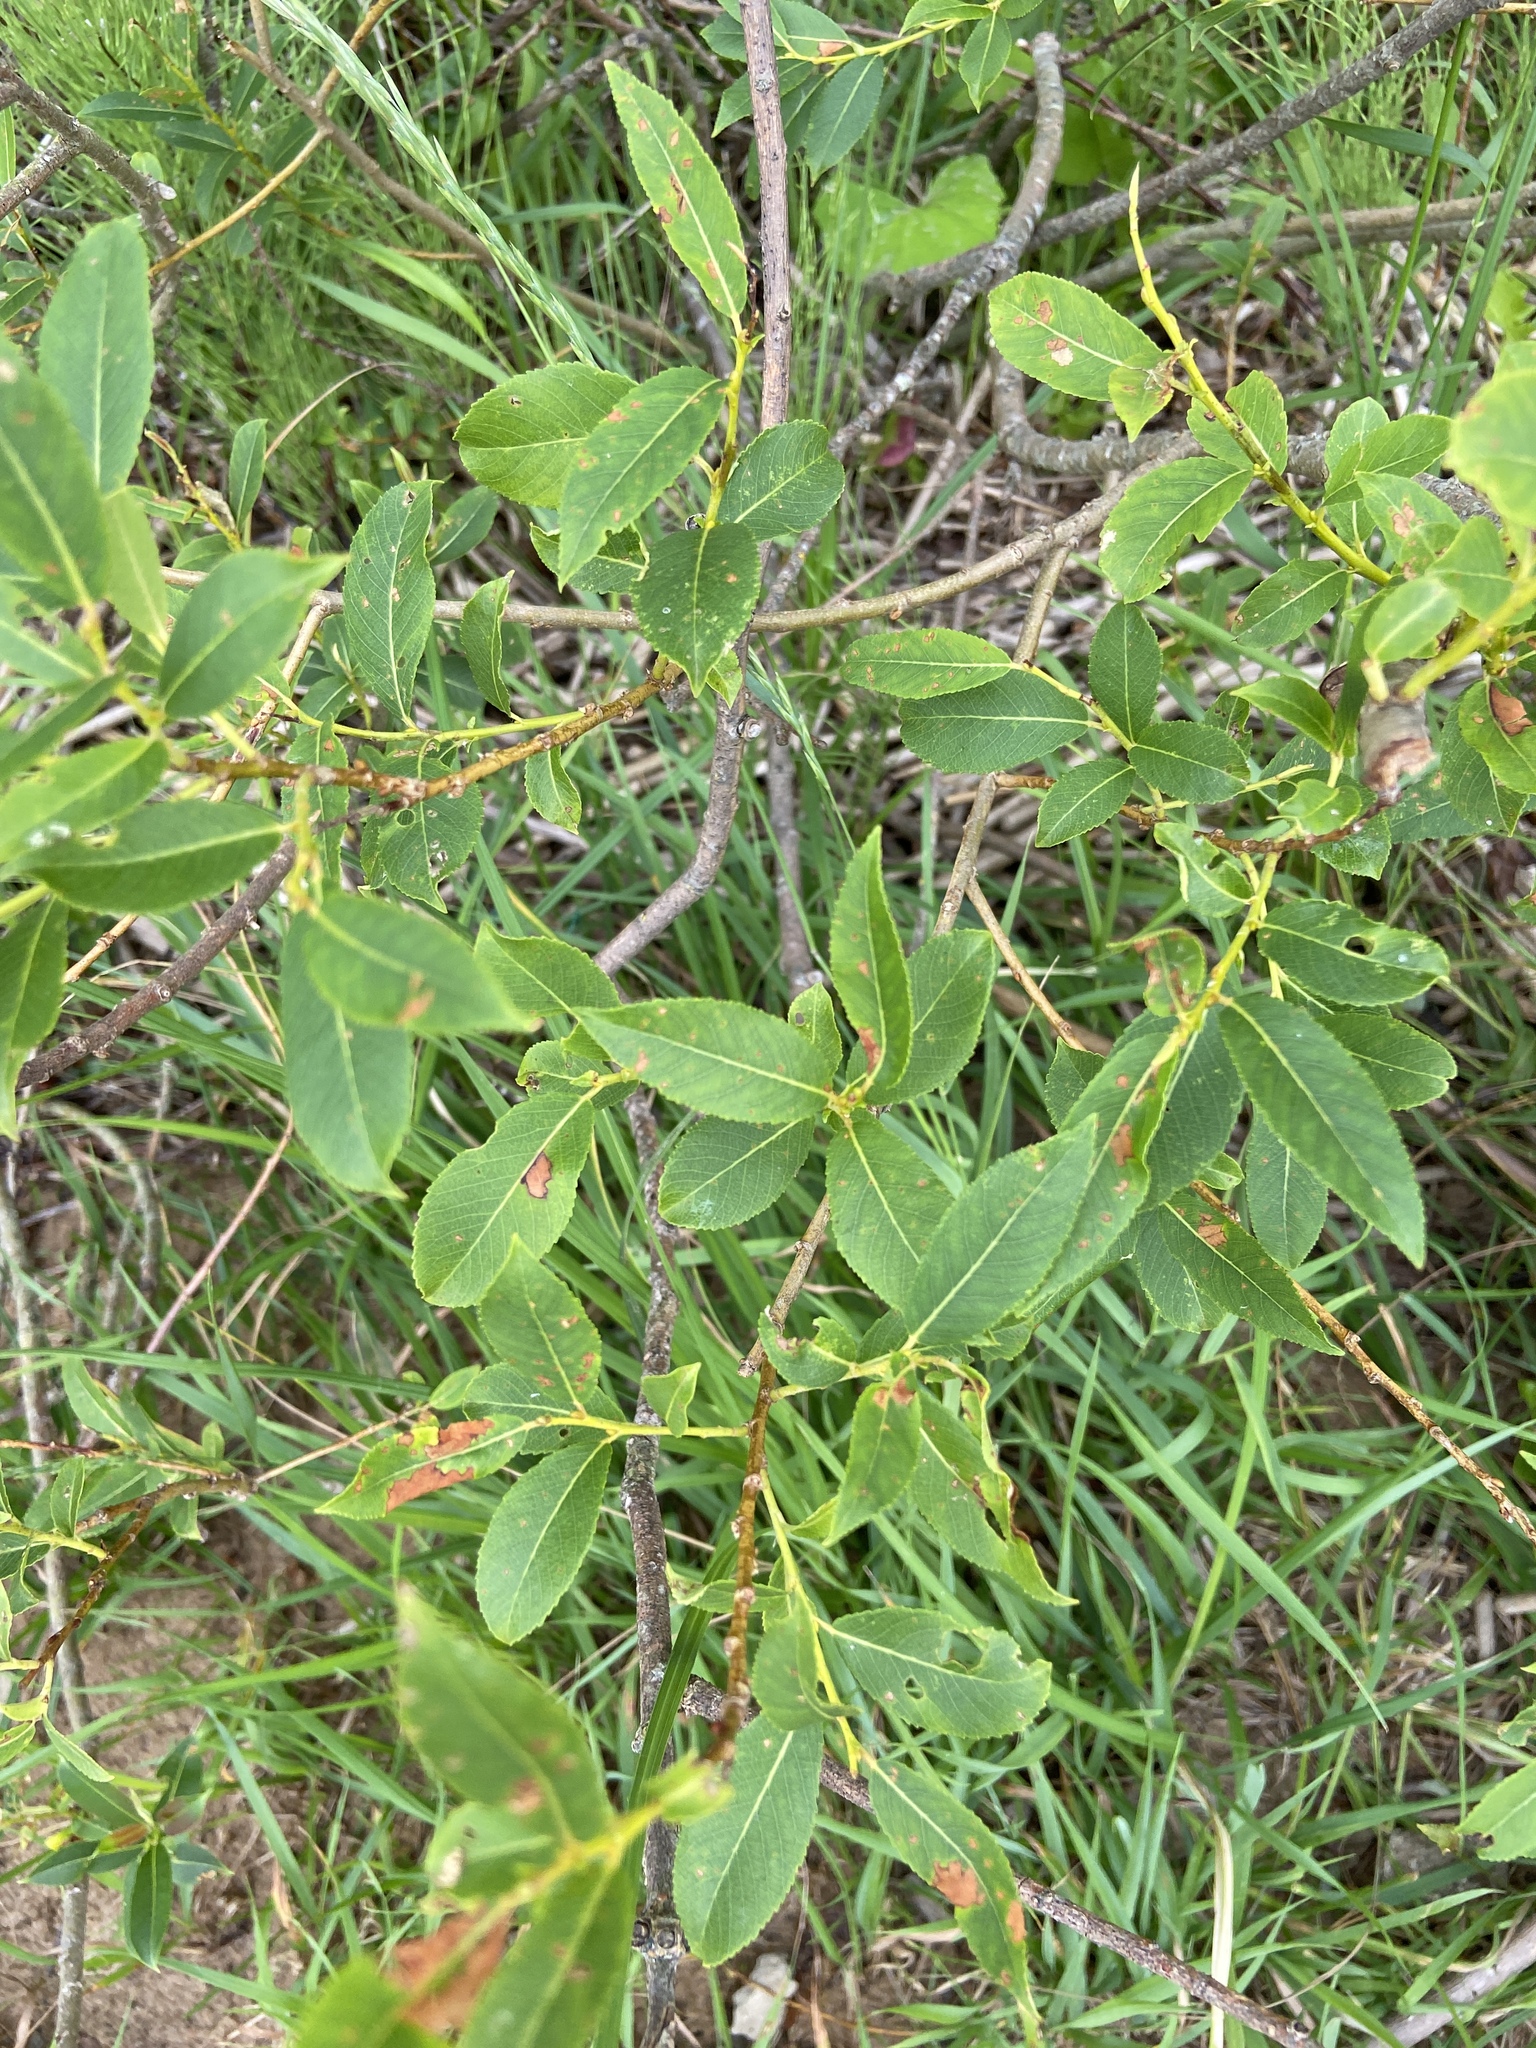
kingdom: Plantae
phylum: Tracheophyta
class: Magnoliopsida
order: Malpighiales
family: Salicaceae
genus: Salix
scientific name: Salix triandra
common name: Almond willow
